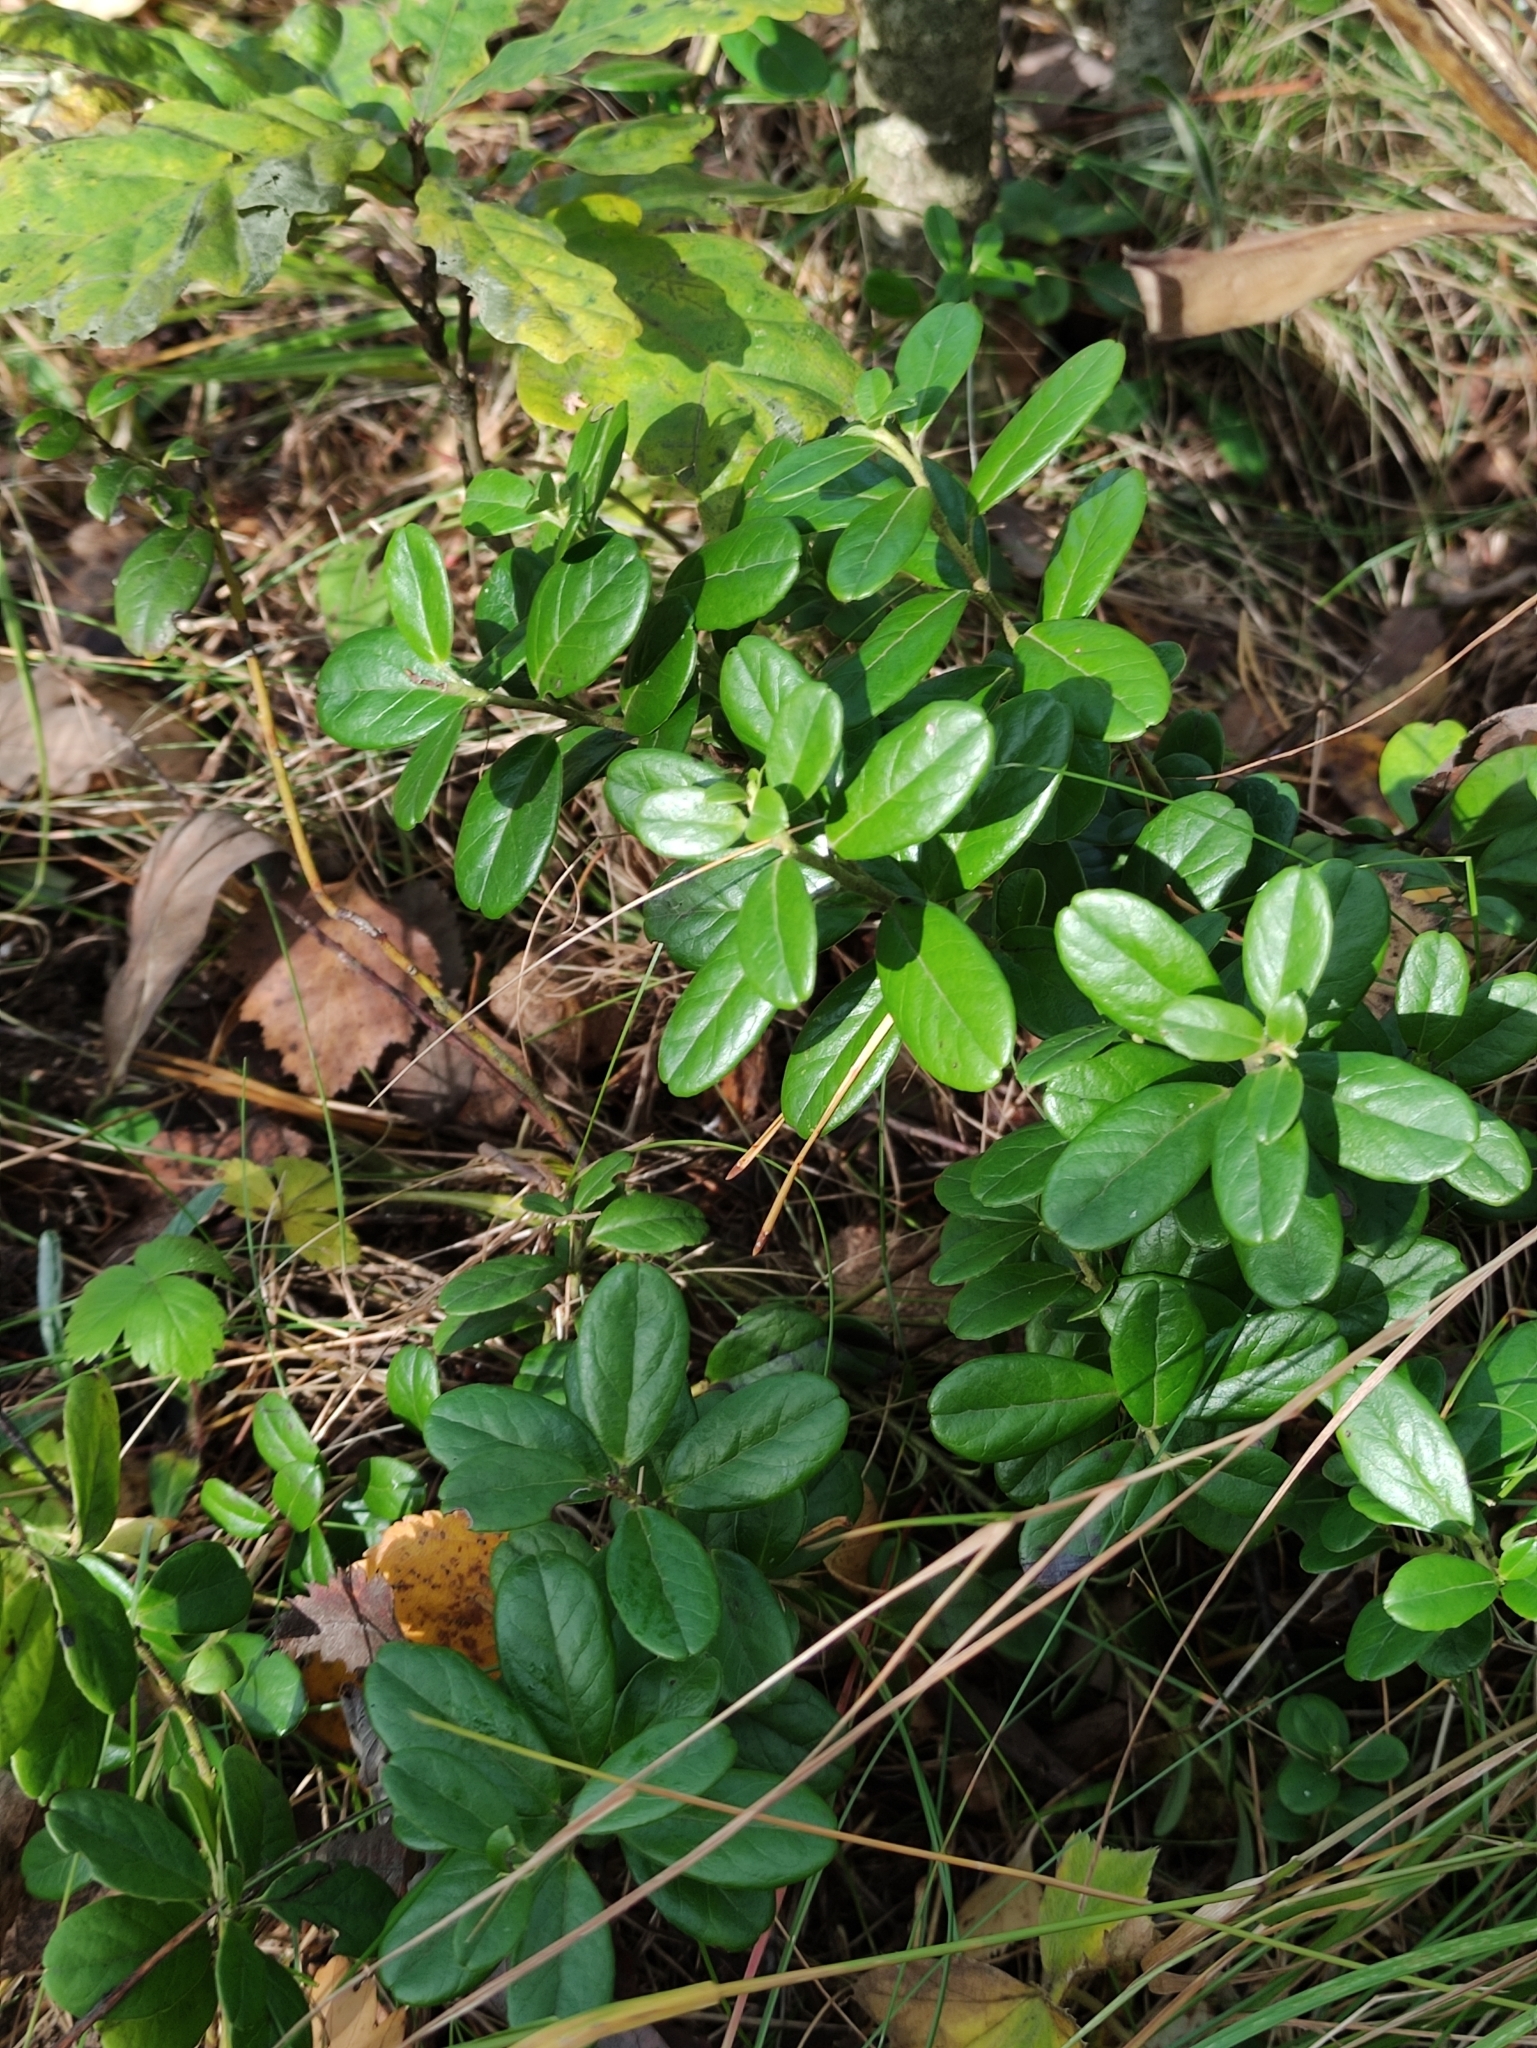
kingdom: Plantae
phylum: Tracheophyta
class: Magnoliopsida
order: Ericales
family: Ericaceae
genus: Vaccinium
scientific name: Vaccinium vitis-idaea
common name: Cowberry
